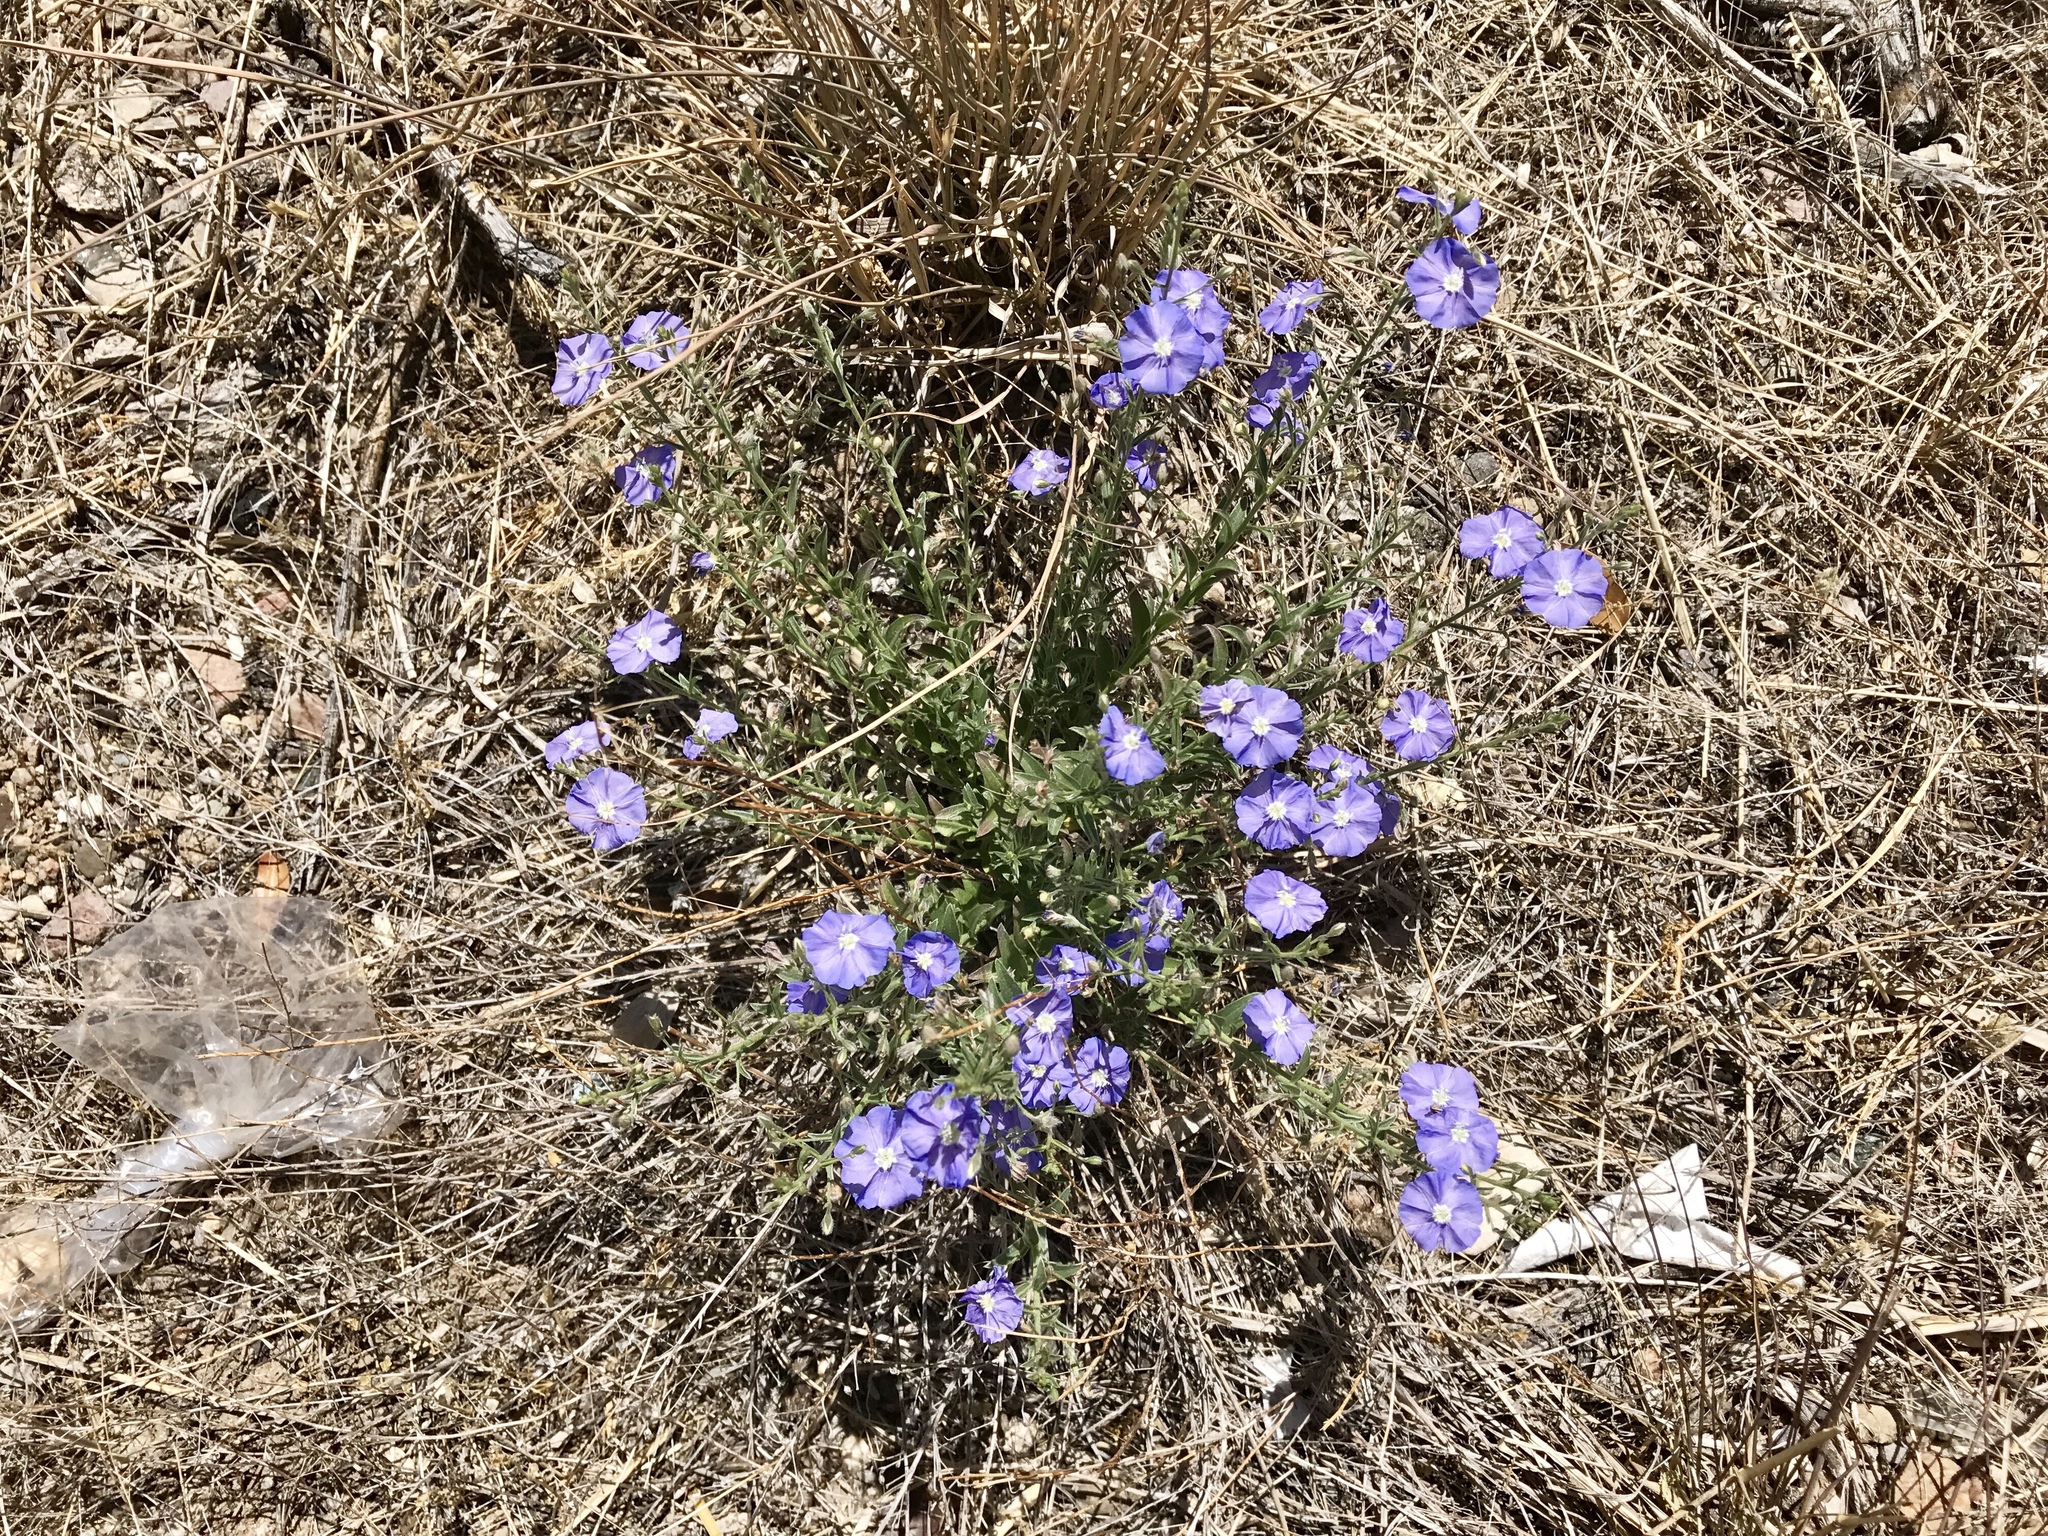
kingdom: Plantae
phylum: Tracheophyta
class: Magnoliopsida
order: Solanales
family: Convolvulaceae
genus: Evolvulus
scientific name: Evolvulus arizonicus
